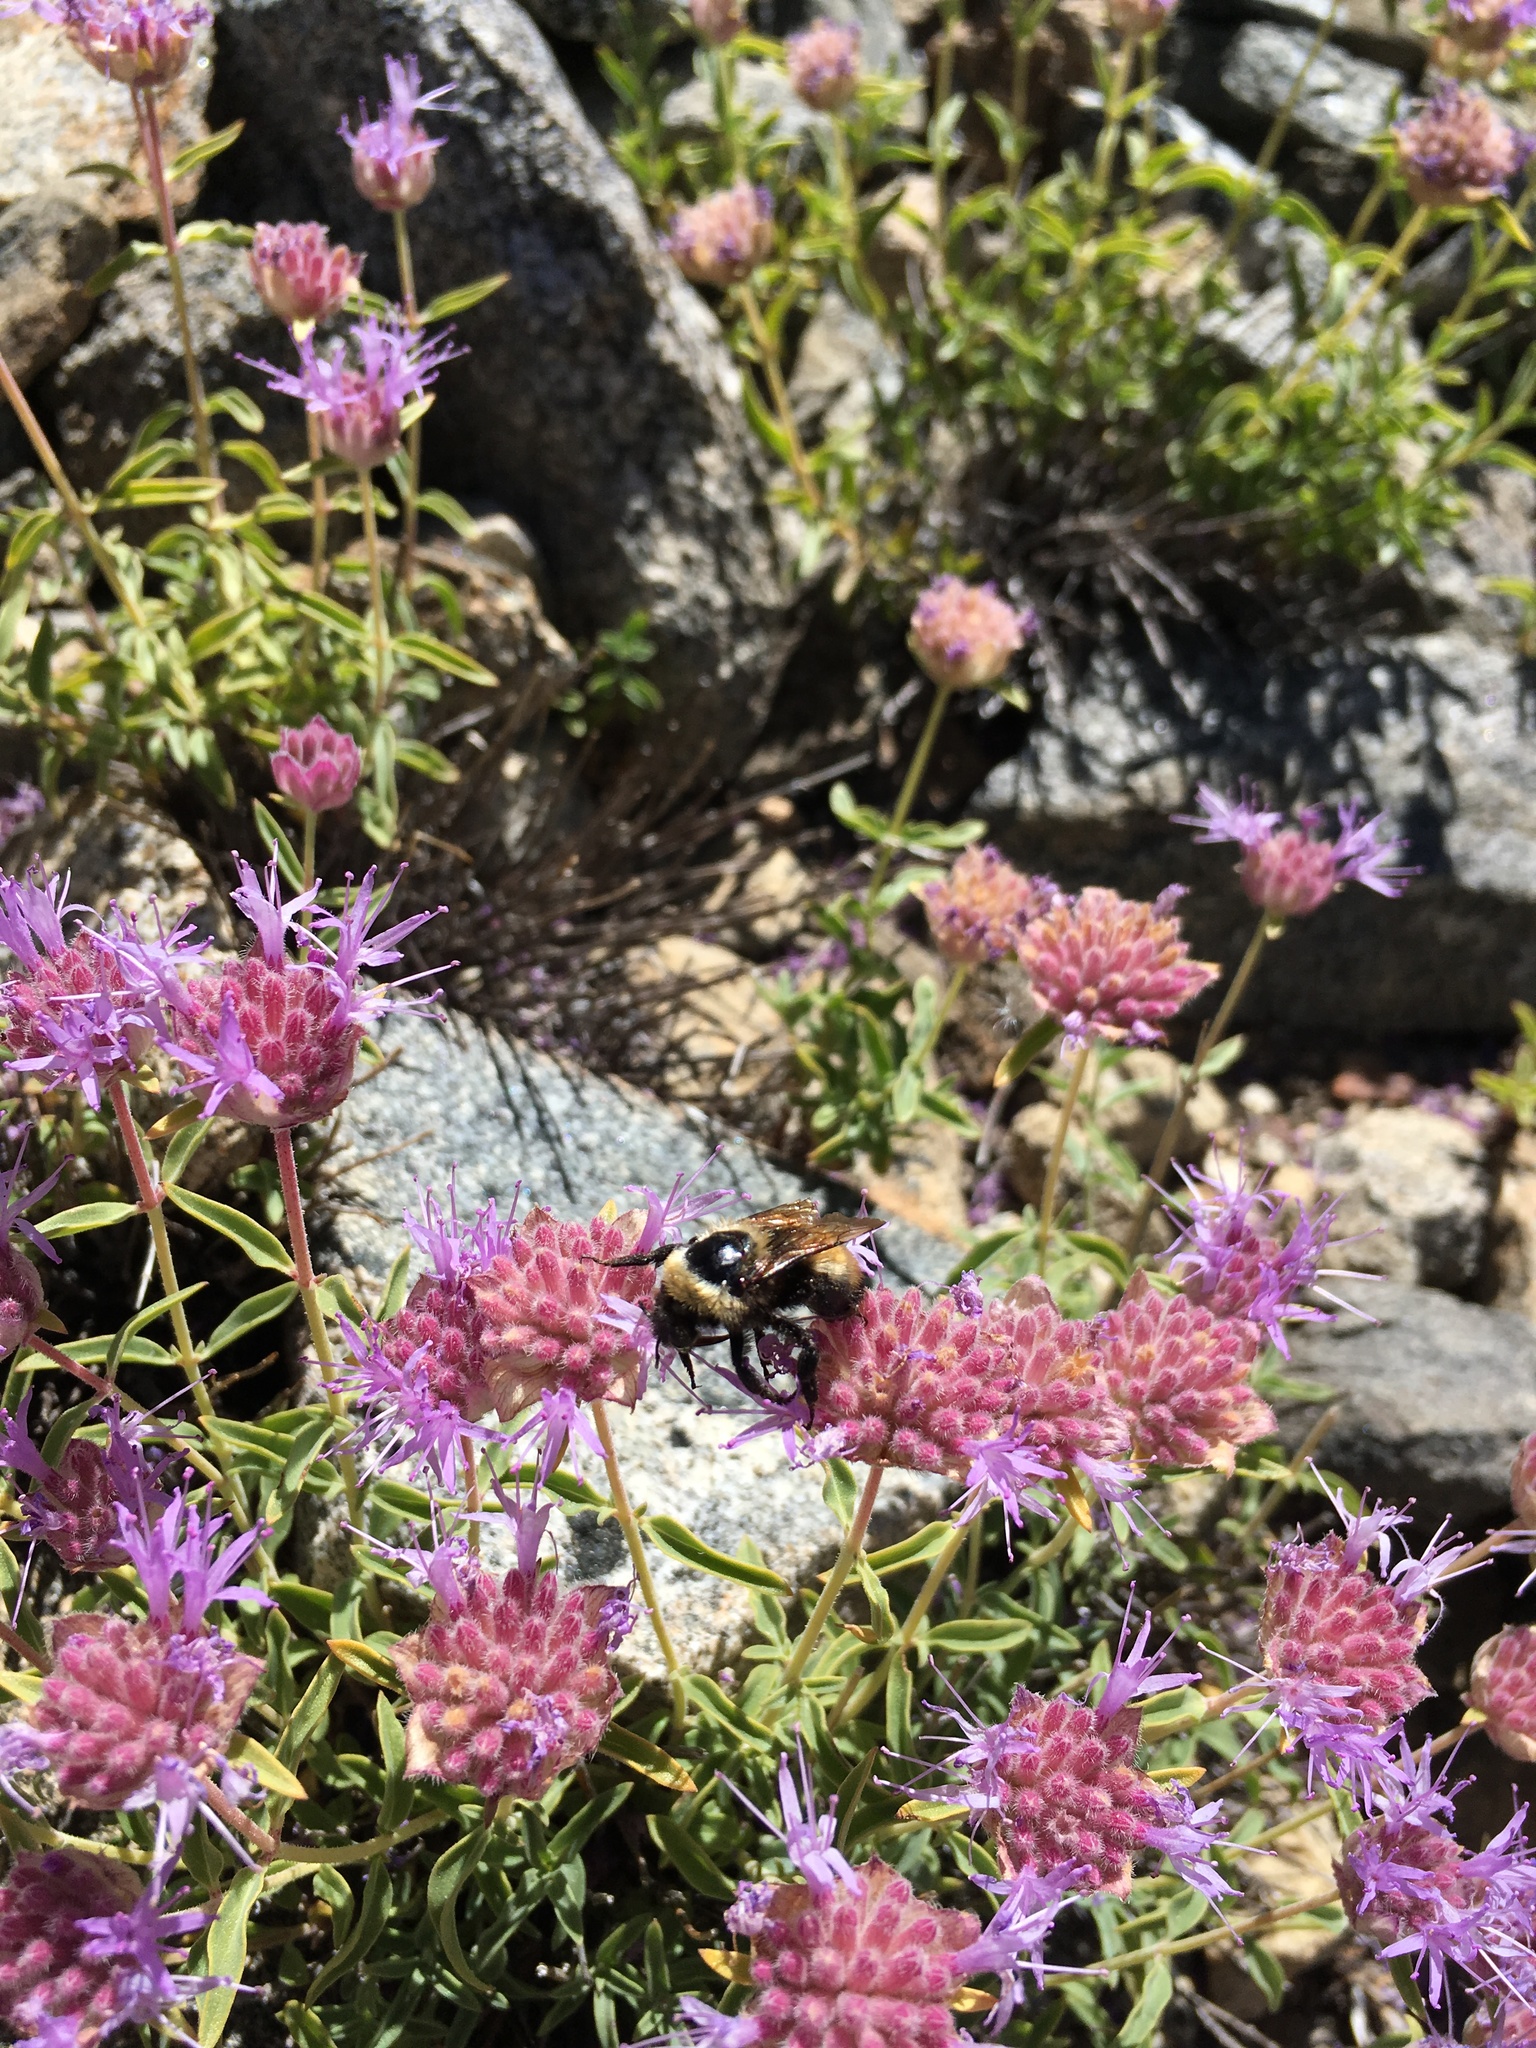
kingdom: Animalia
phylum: Arthropoda
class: Insecta
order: Hymenoptera
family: Apidae
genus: Bombus
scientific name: Bombus nevadensis
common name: Nevada bumble bee
